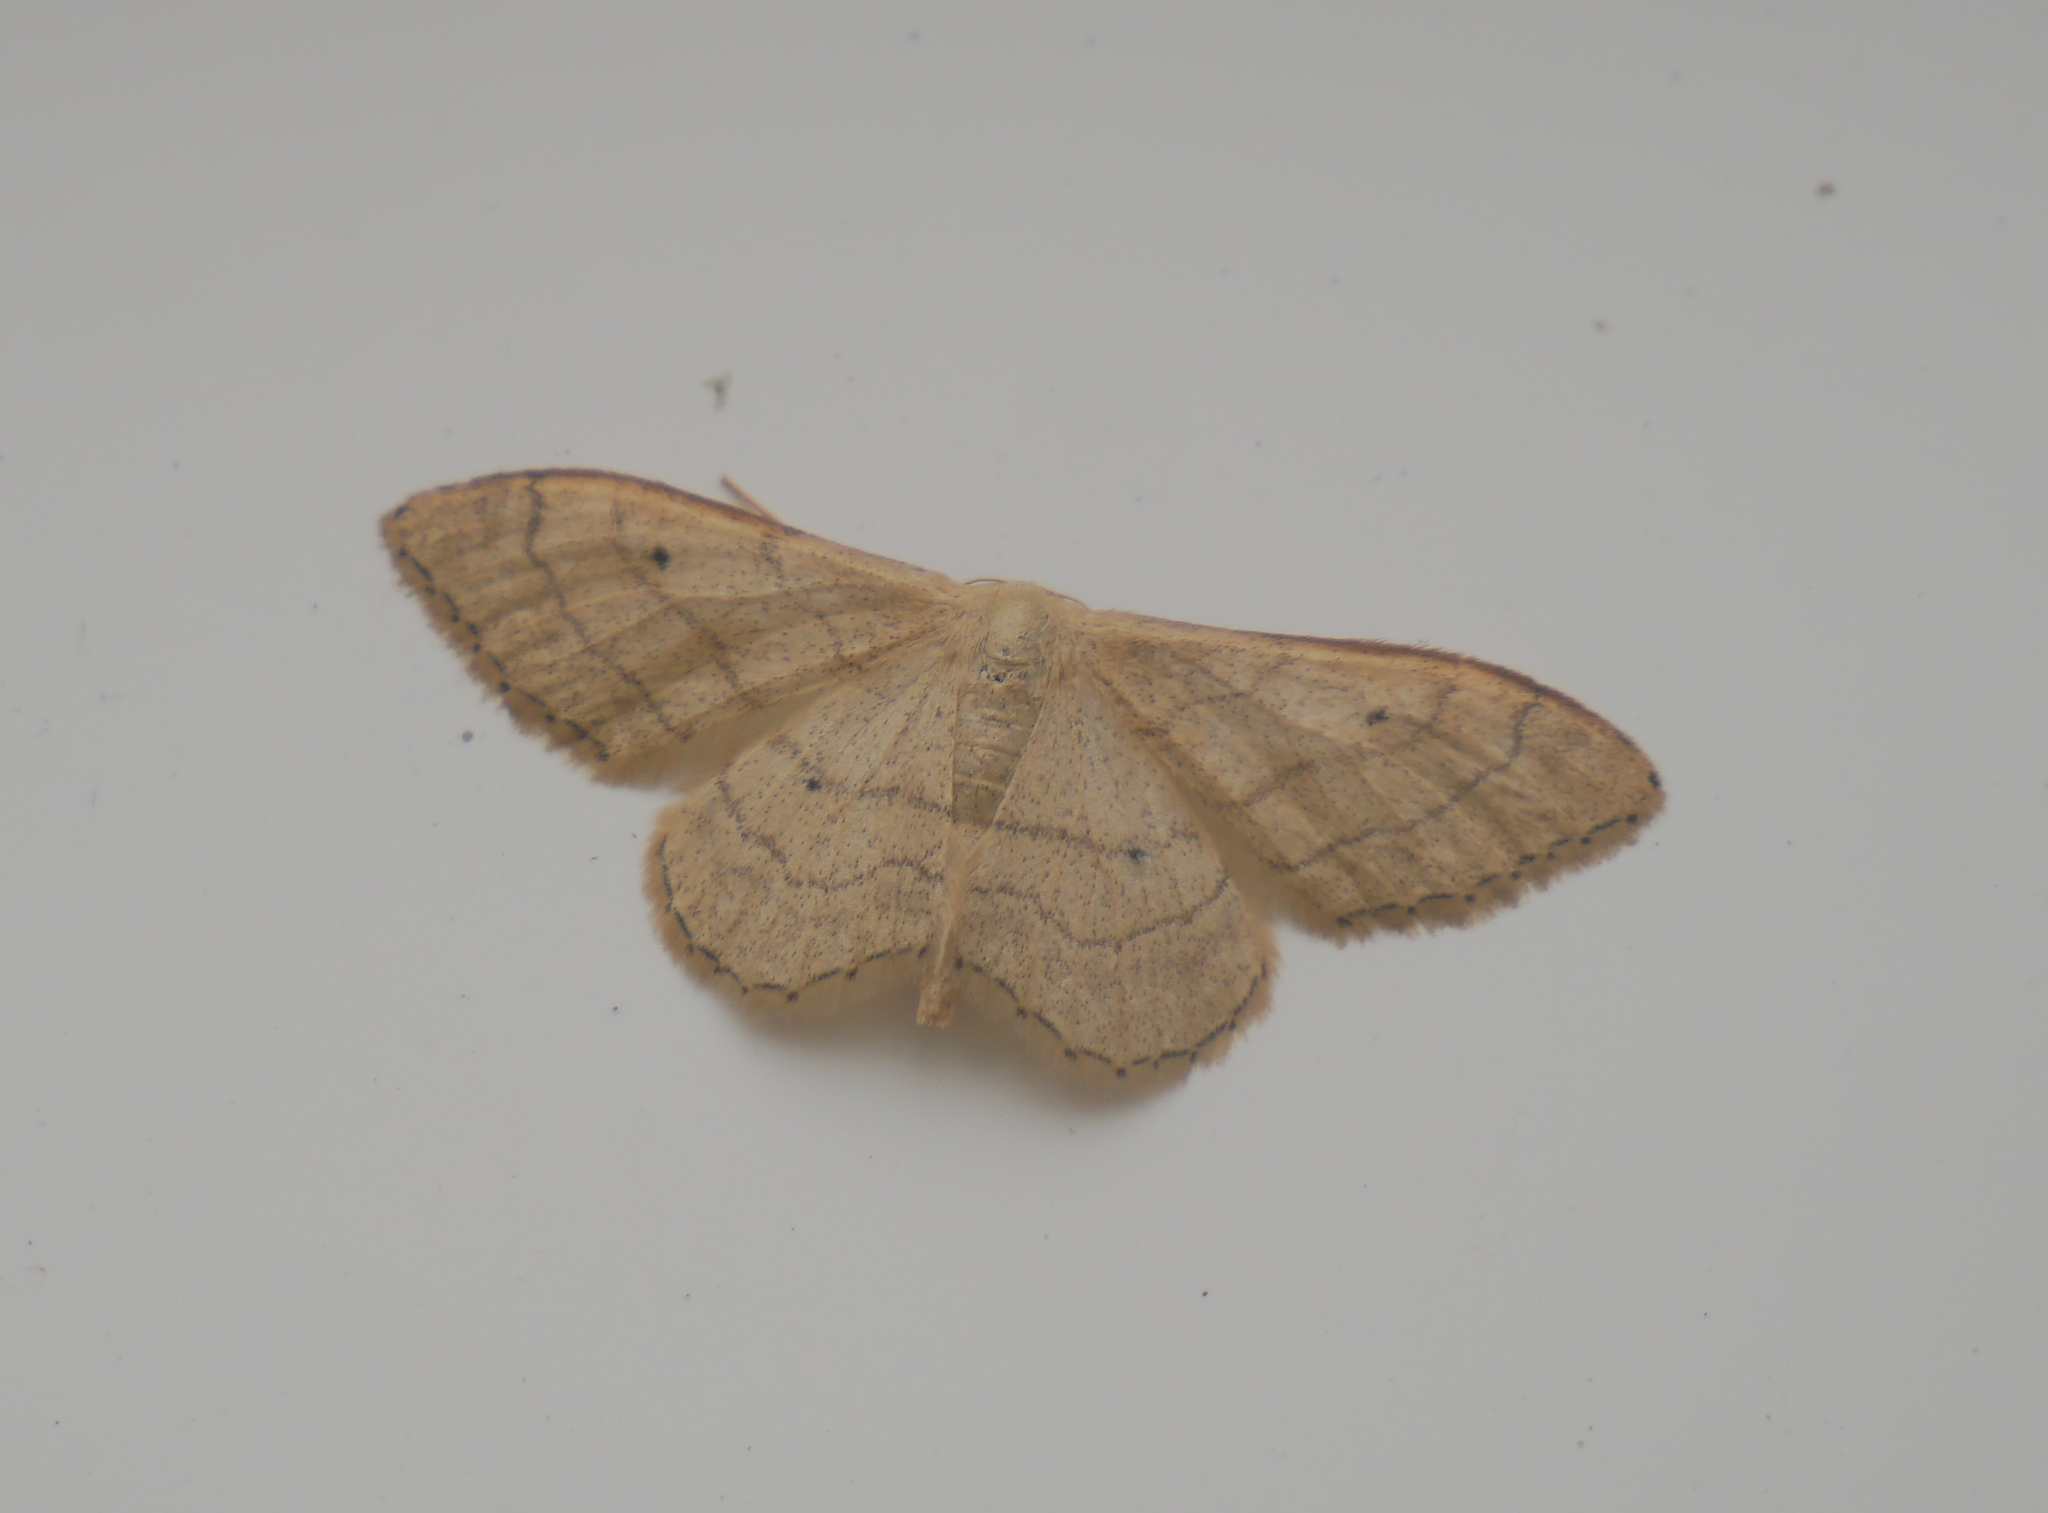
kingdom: Animalia
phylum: Arthropoda
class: Insecta
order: Lepidoptera
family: Geometridae
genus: Idaea
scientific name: Idaea aversata
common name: Riband wave
